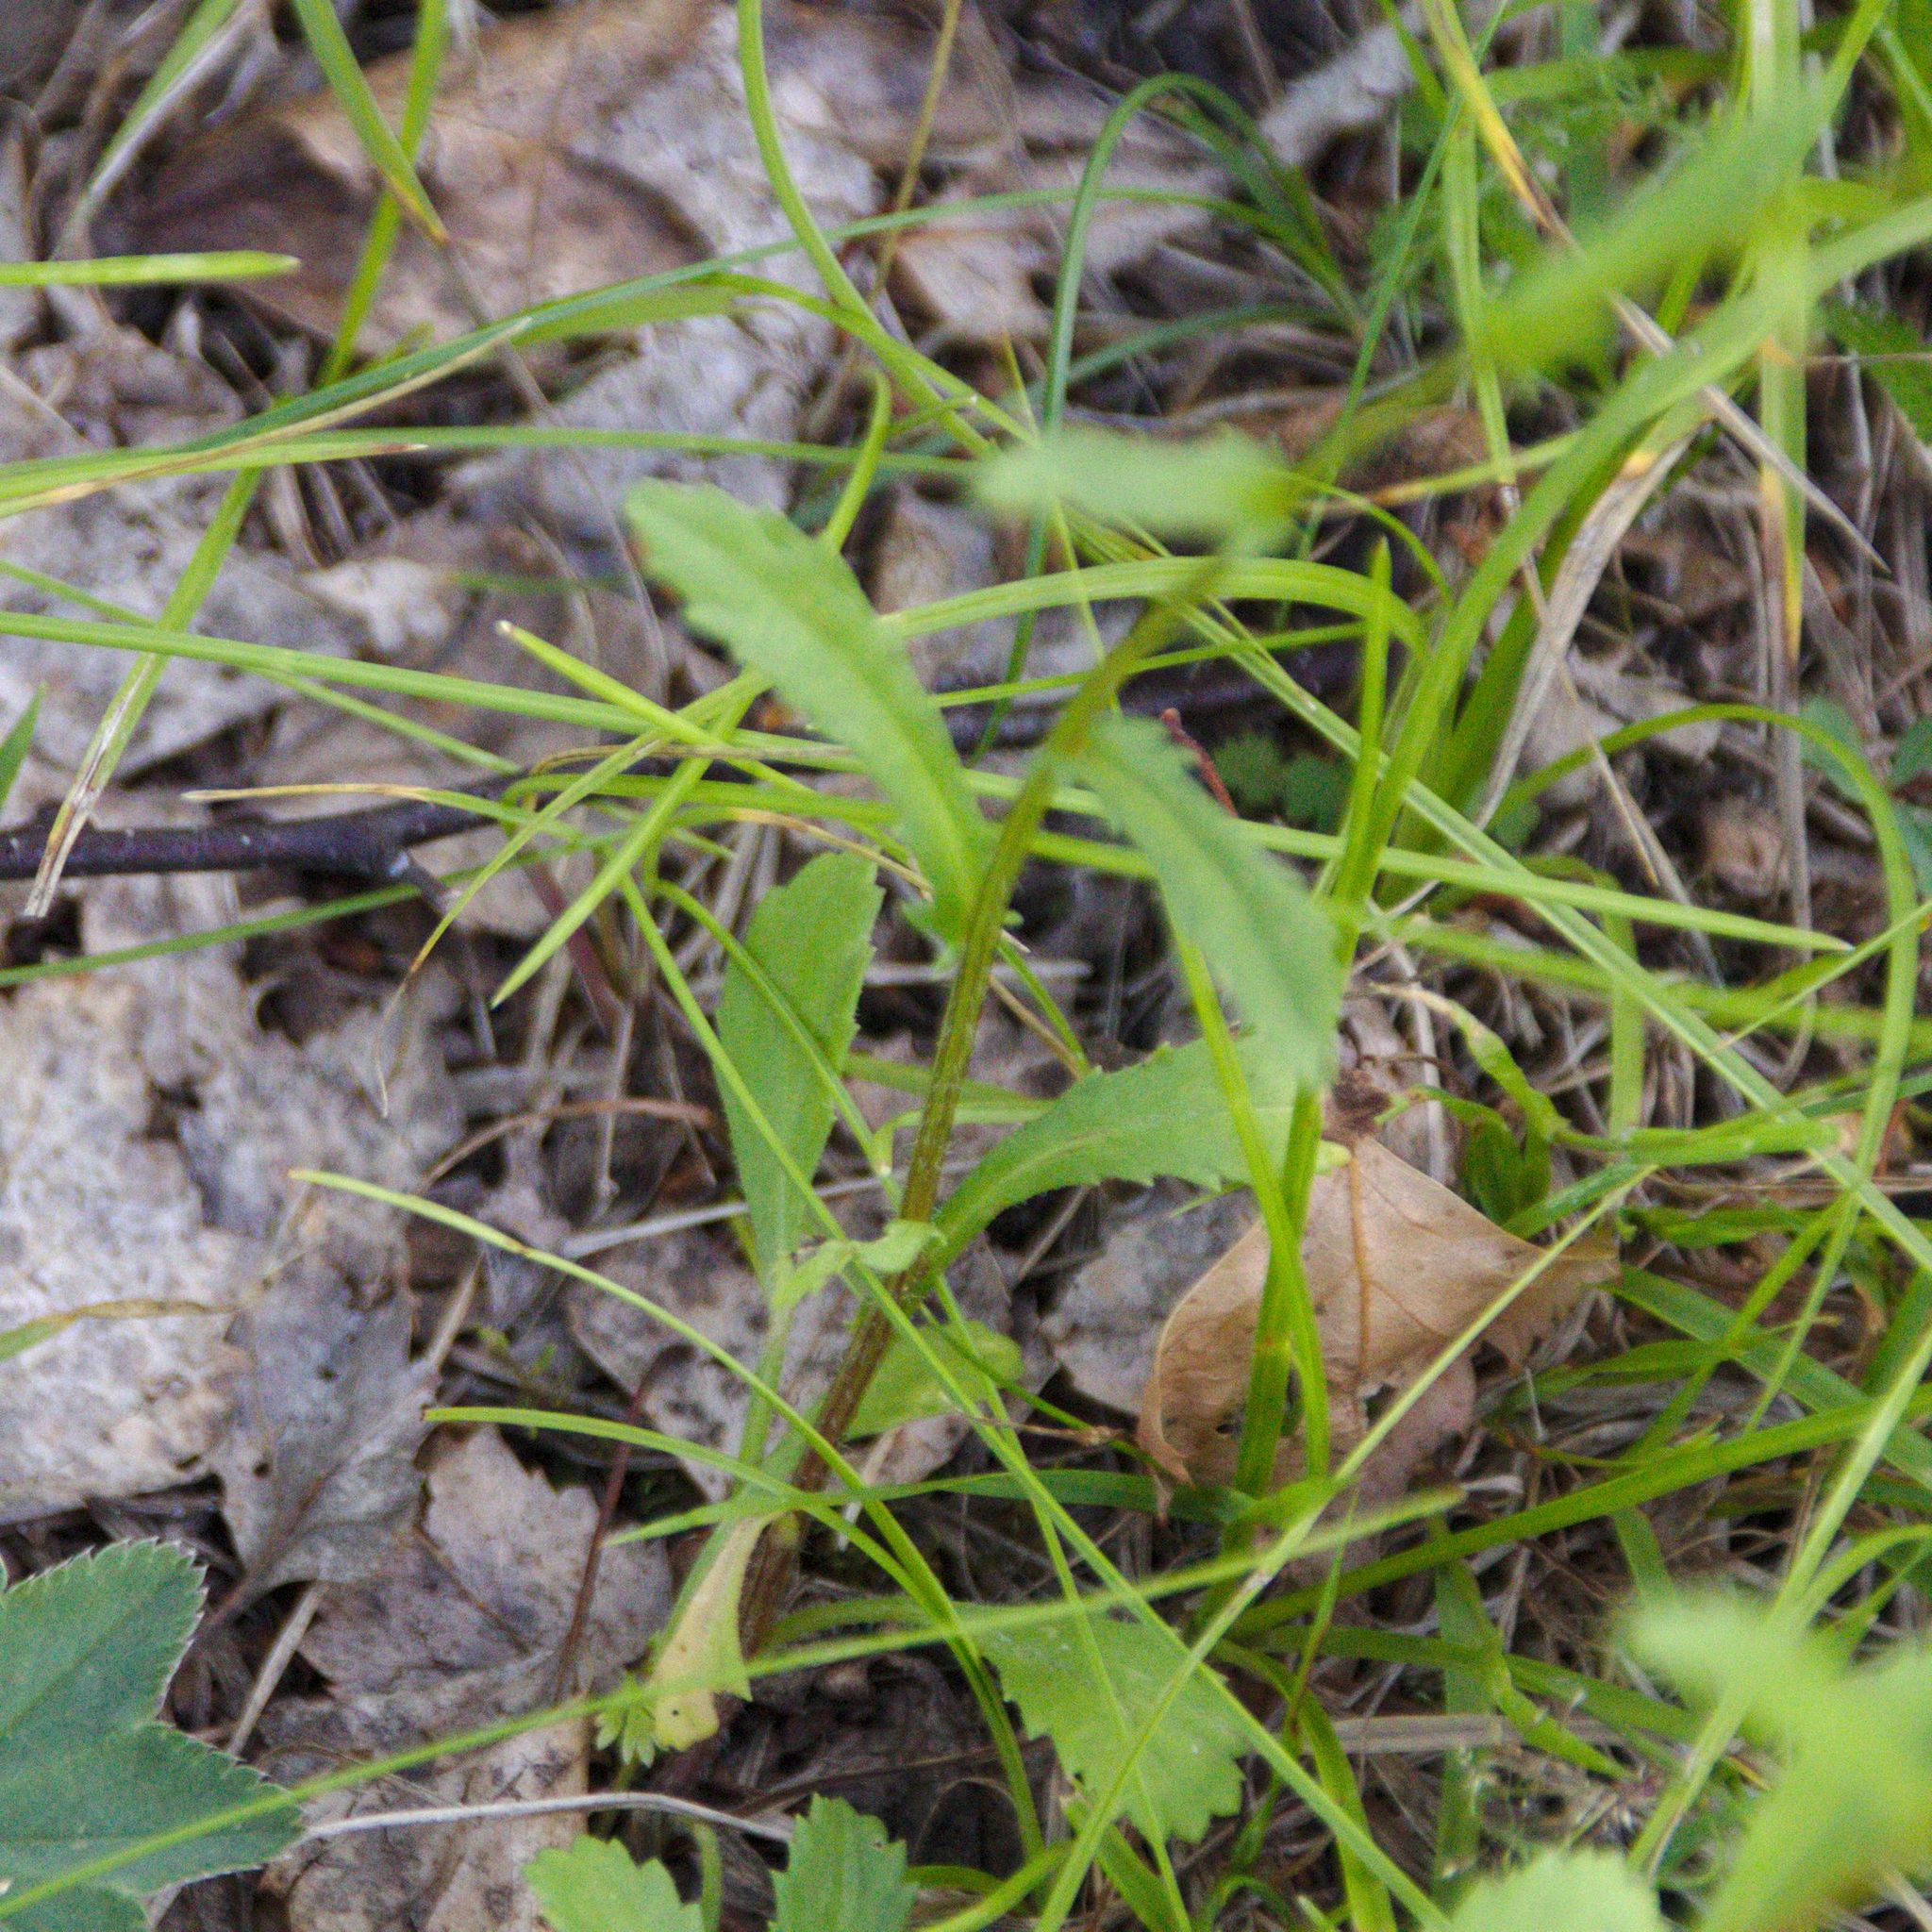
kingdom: Plantae
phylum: Tracheophyta
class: Magnoliopsida
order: Asterales
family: Asteraceae
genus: Leucanthemum
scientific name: Leucanthemum ircutianum
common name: Daisy
